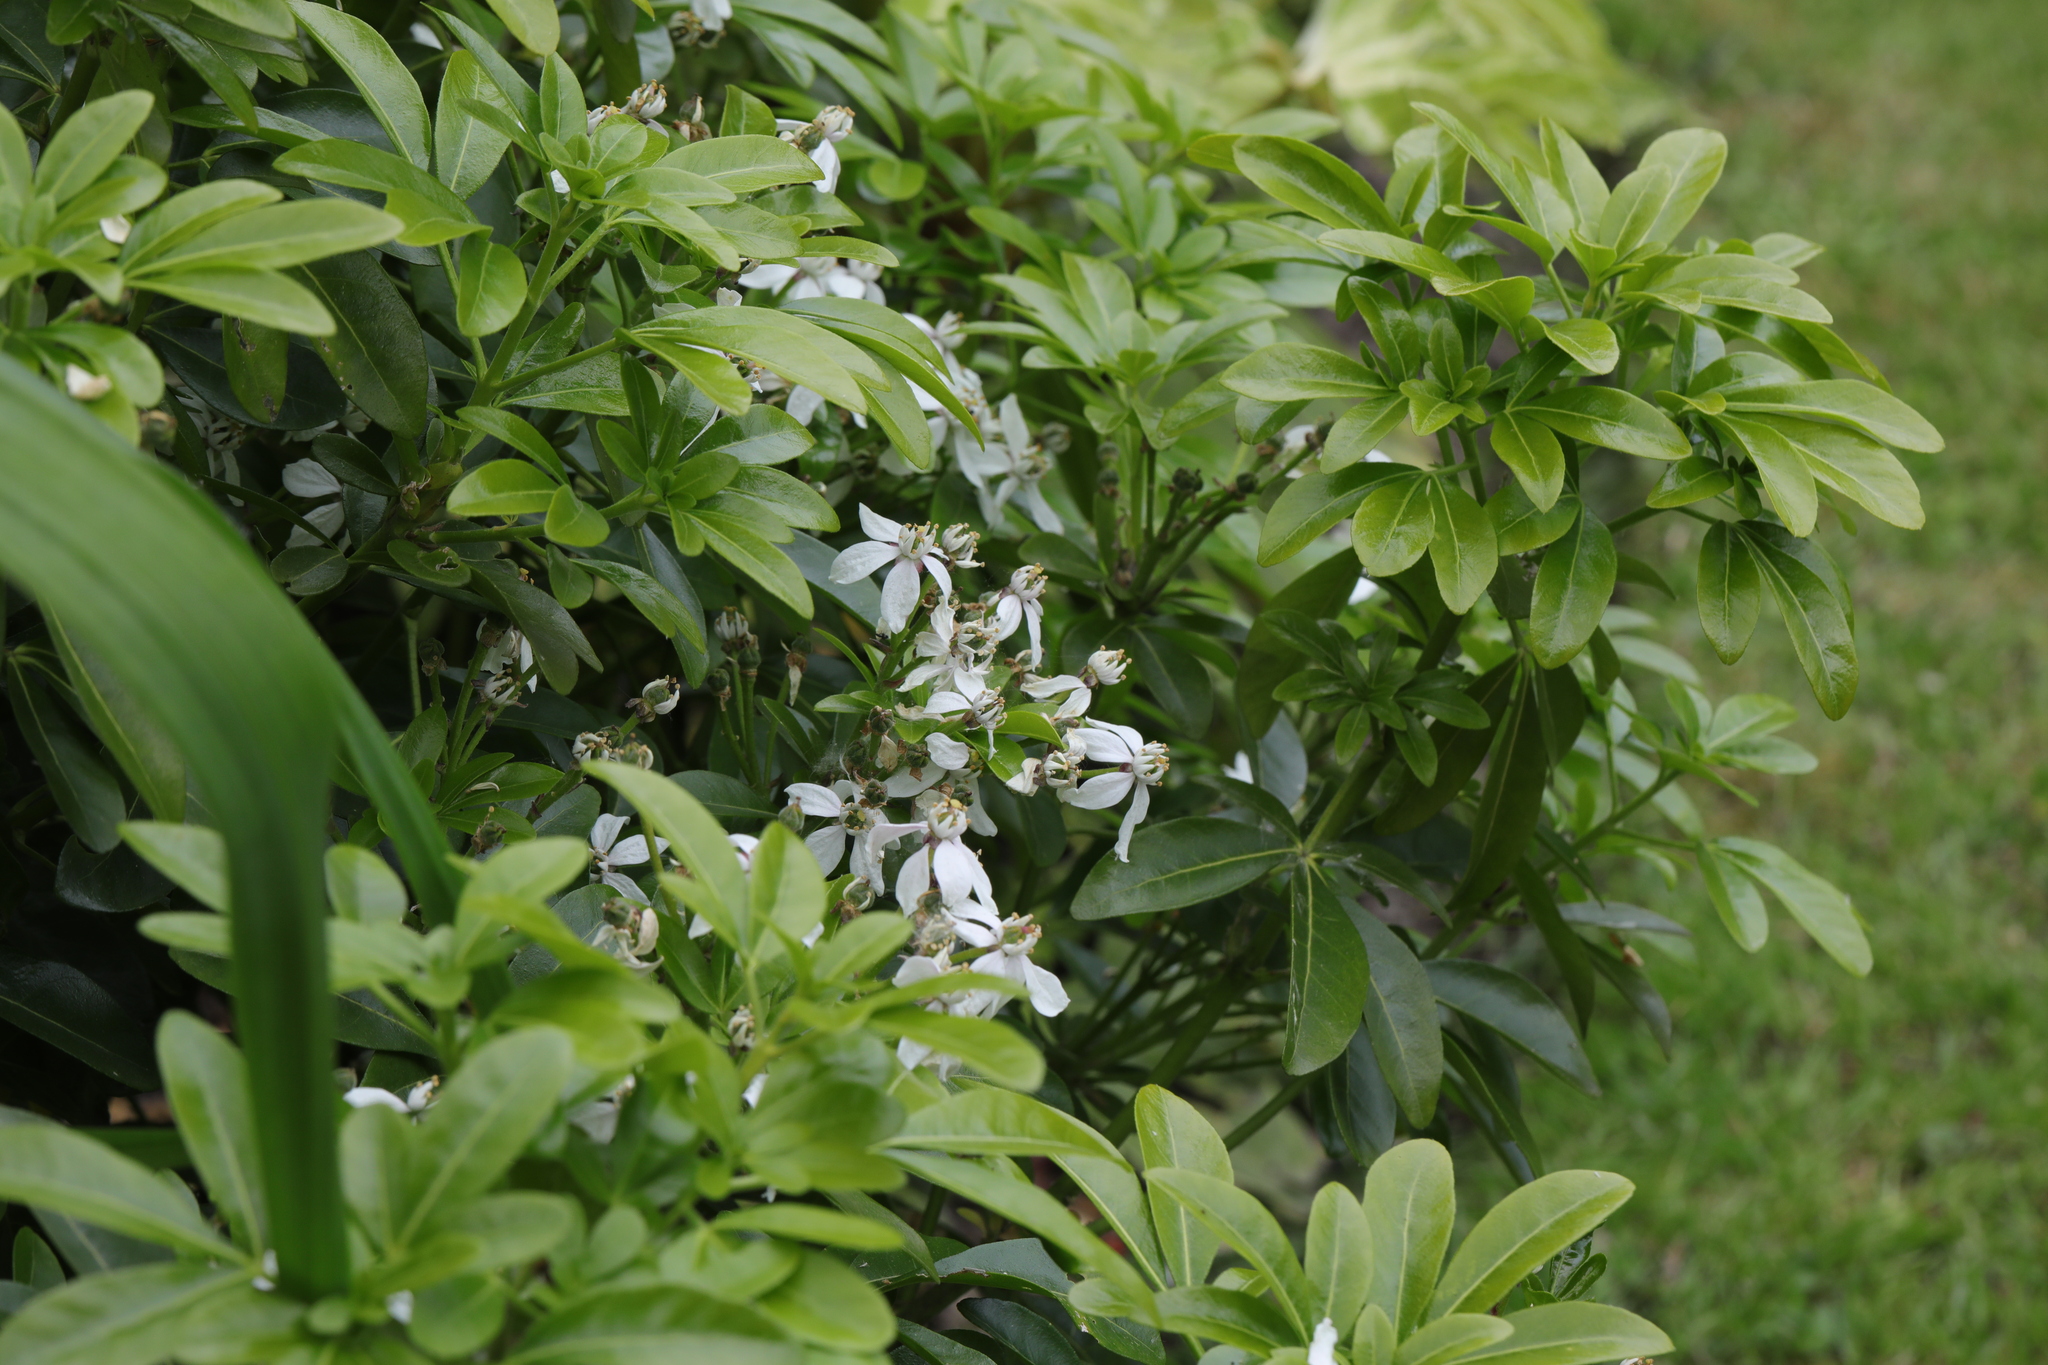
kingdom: Plantae
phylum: Tracheophyta
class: Magnoliopsida
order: Sapindales
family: Rutaceae
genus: Choisya
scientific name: Choisya ternata
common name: Mexican orange
